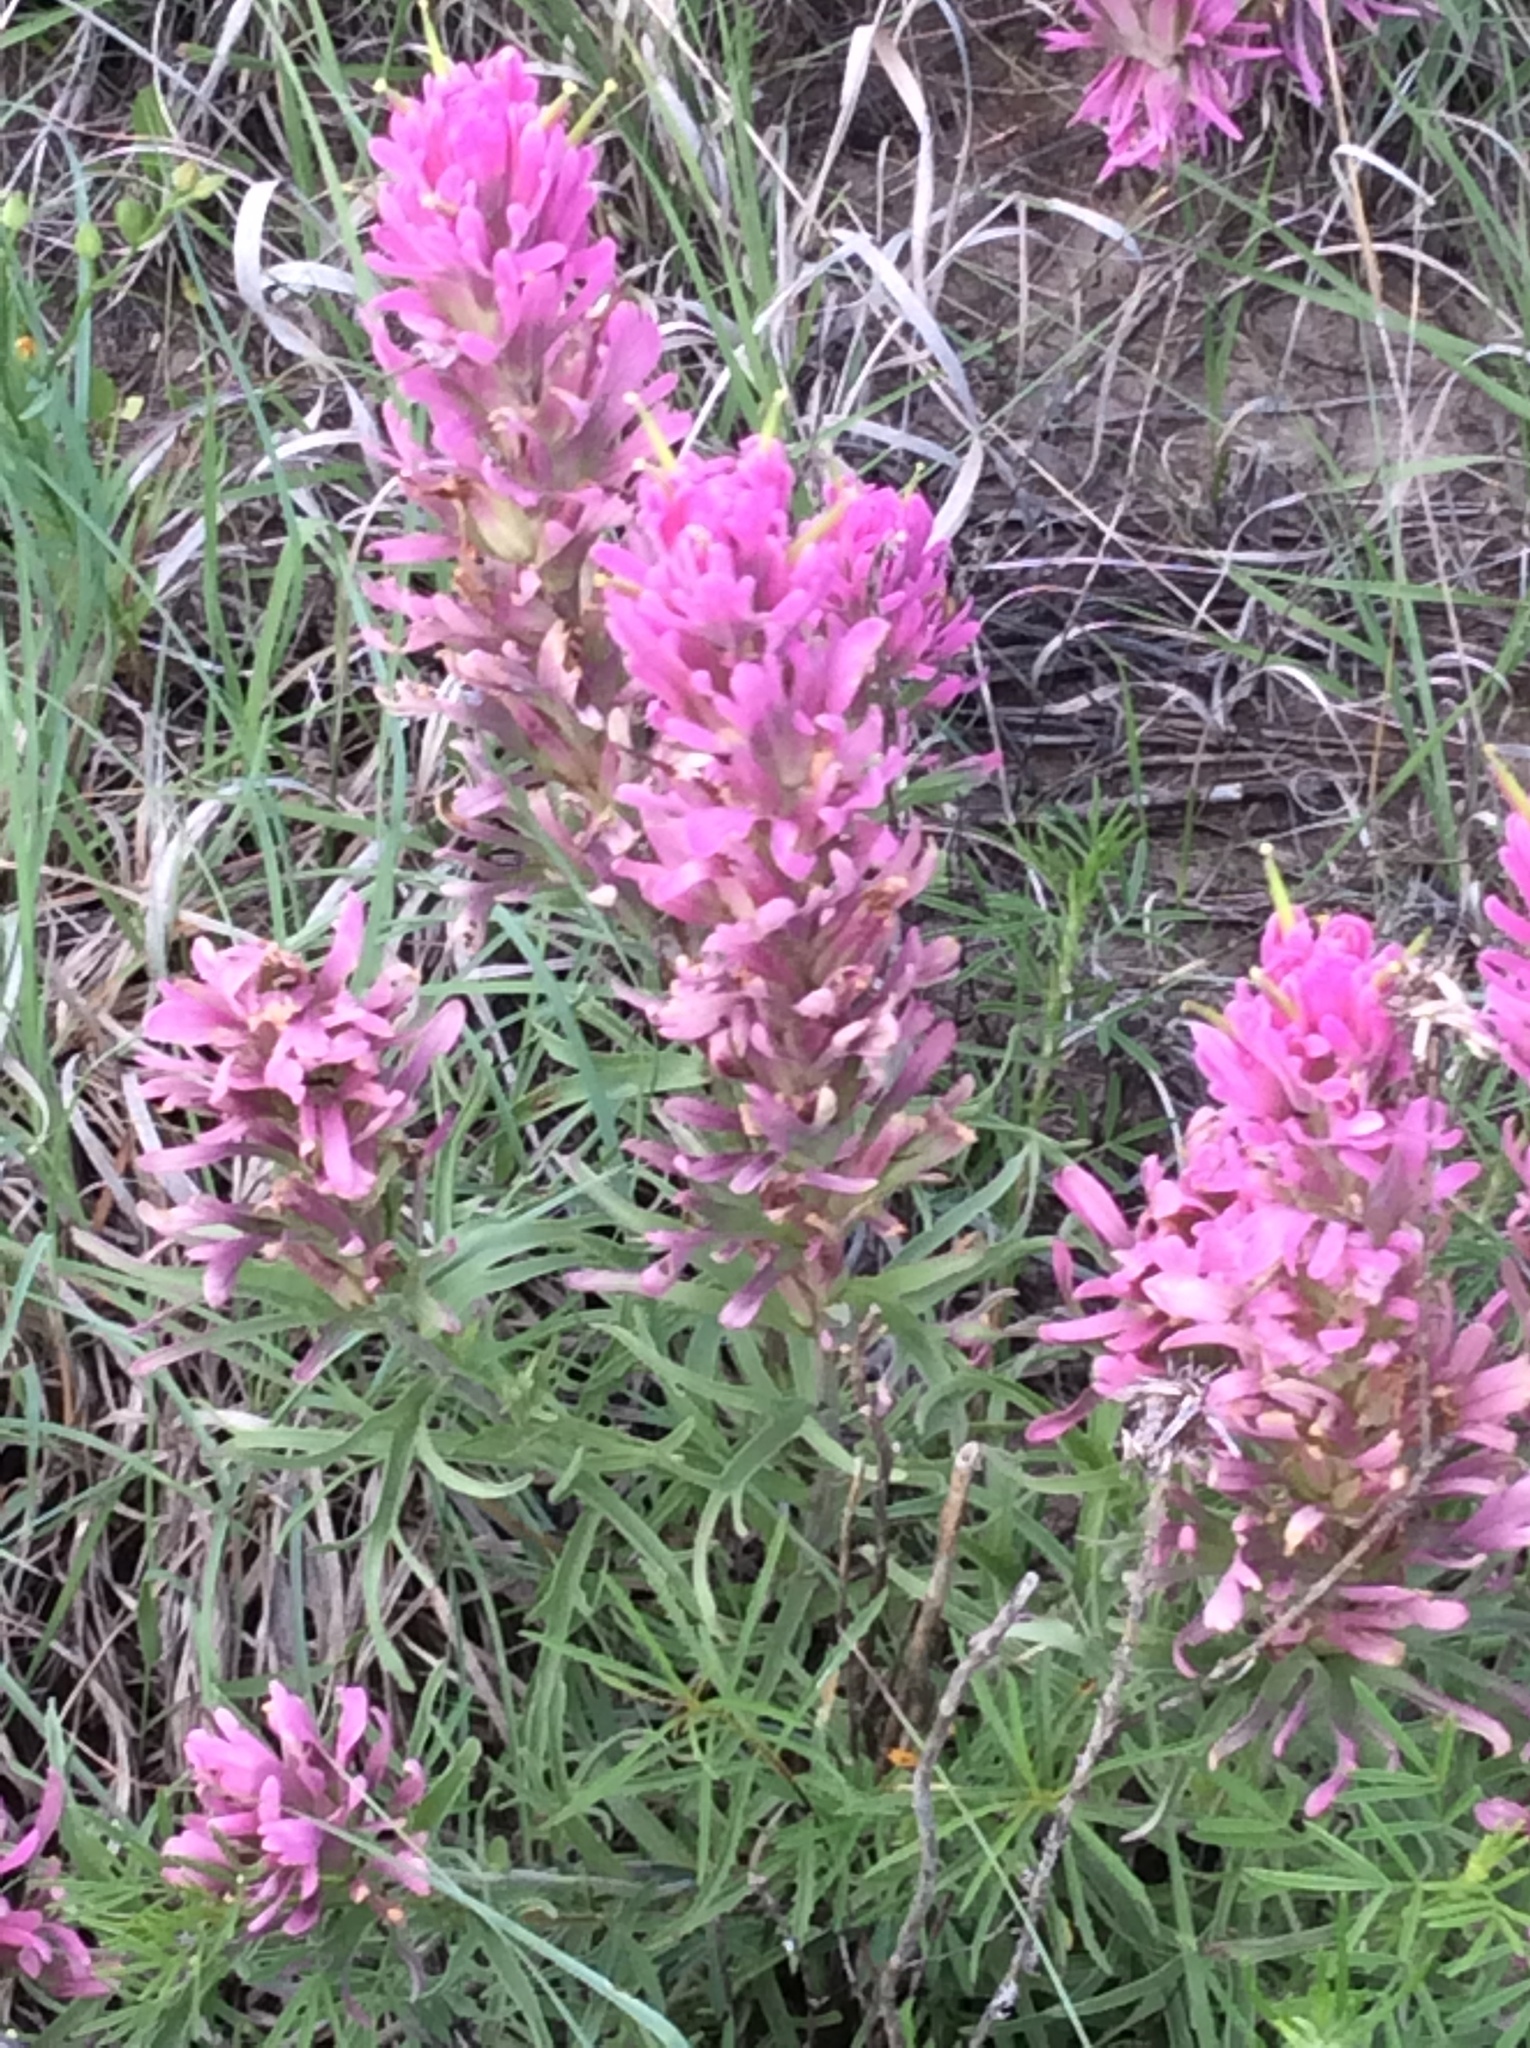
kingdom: Plantae
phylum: Tracheophyta
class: Magnoliopsida
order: Lamiales
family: Orobanchaceae
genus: Castilleja
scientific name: Castilleja purpurea
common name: Plains paintbrush
